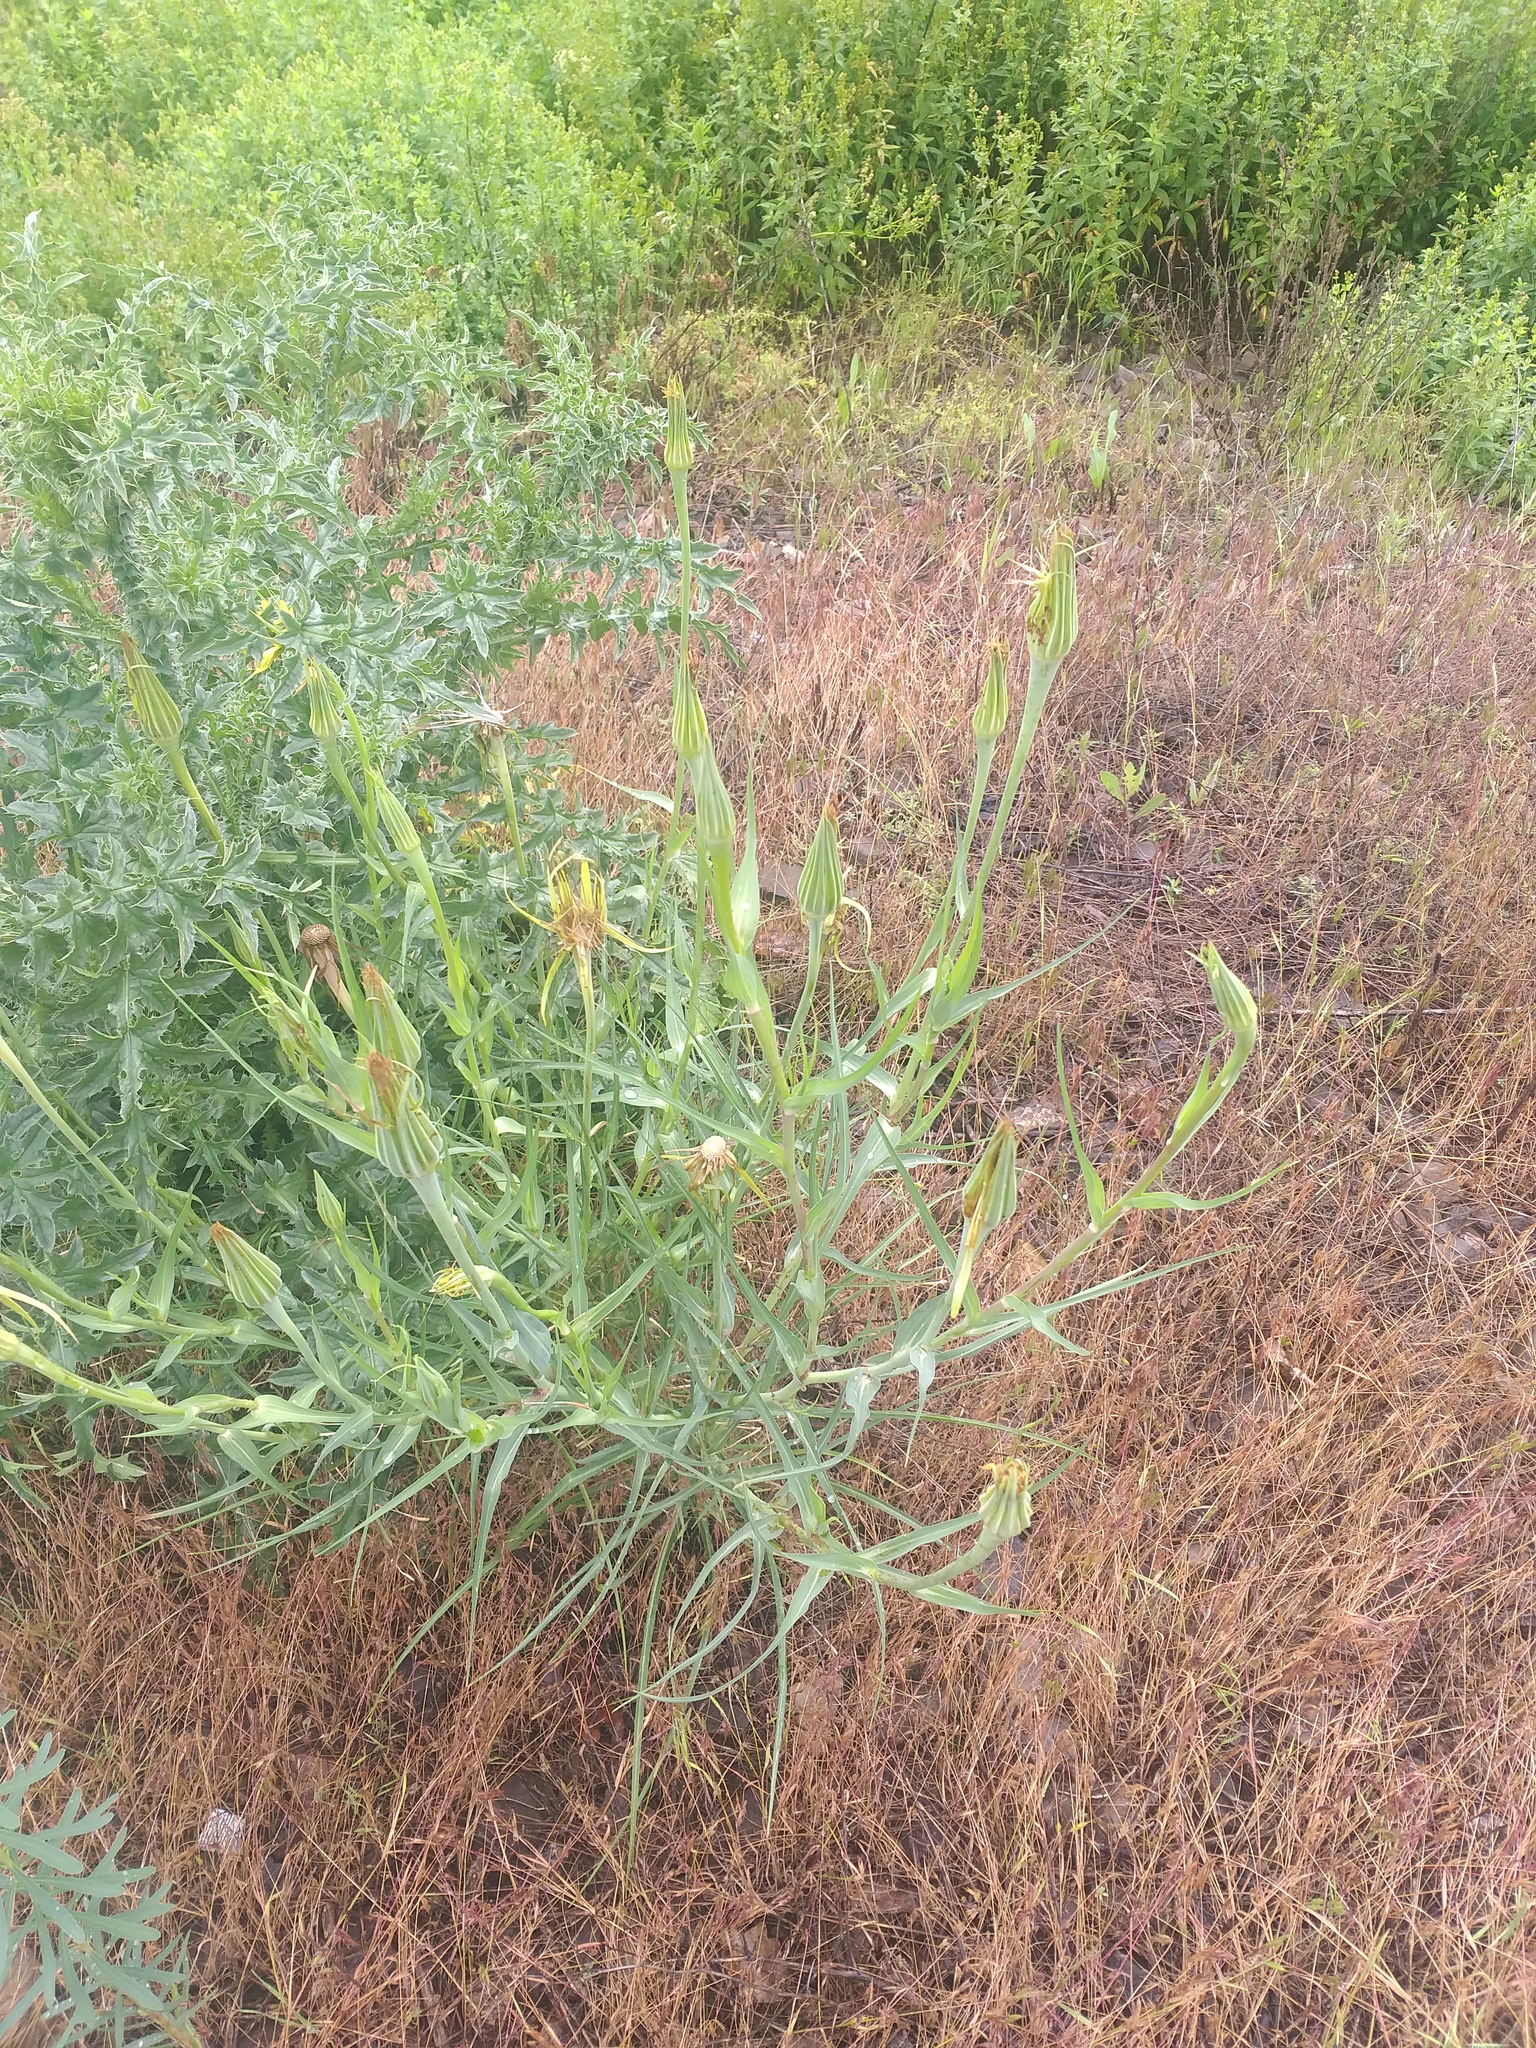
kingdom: Plantae
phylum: Tracheophyta
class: Magnoliopsida
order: Asterales
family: Asteraceae
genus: Tragopogon
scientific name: Tragopogon dubius
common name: Yellow salsify
